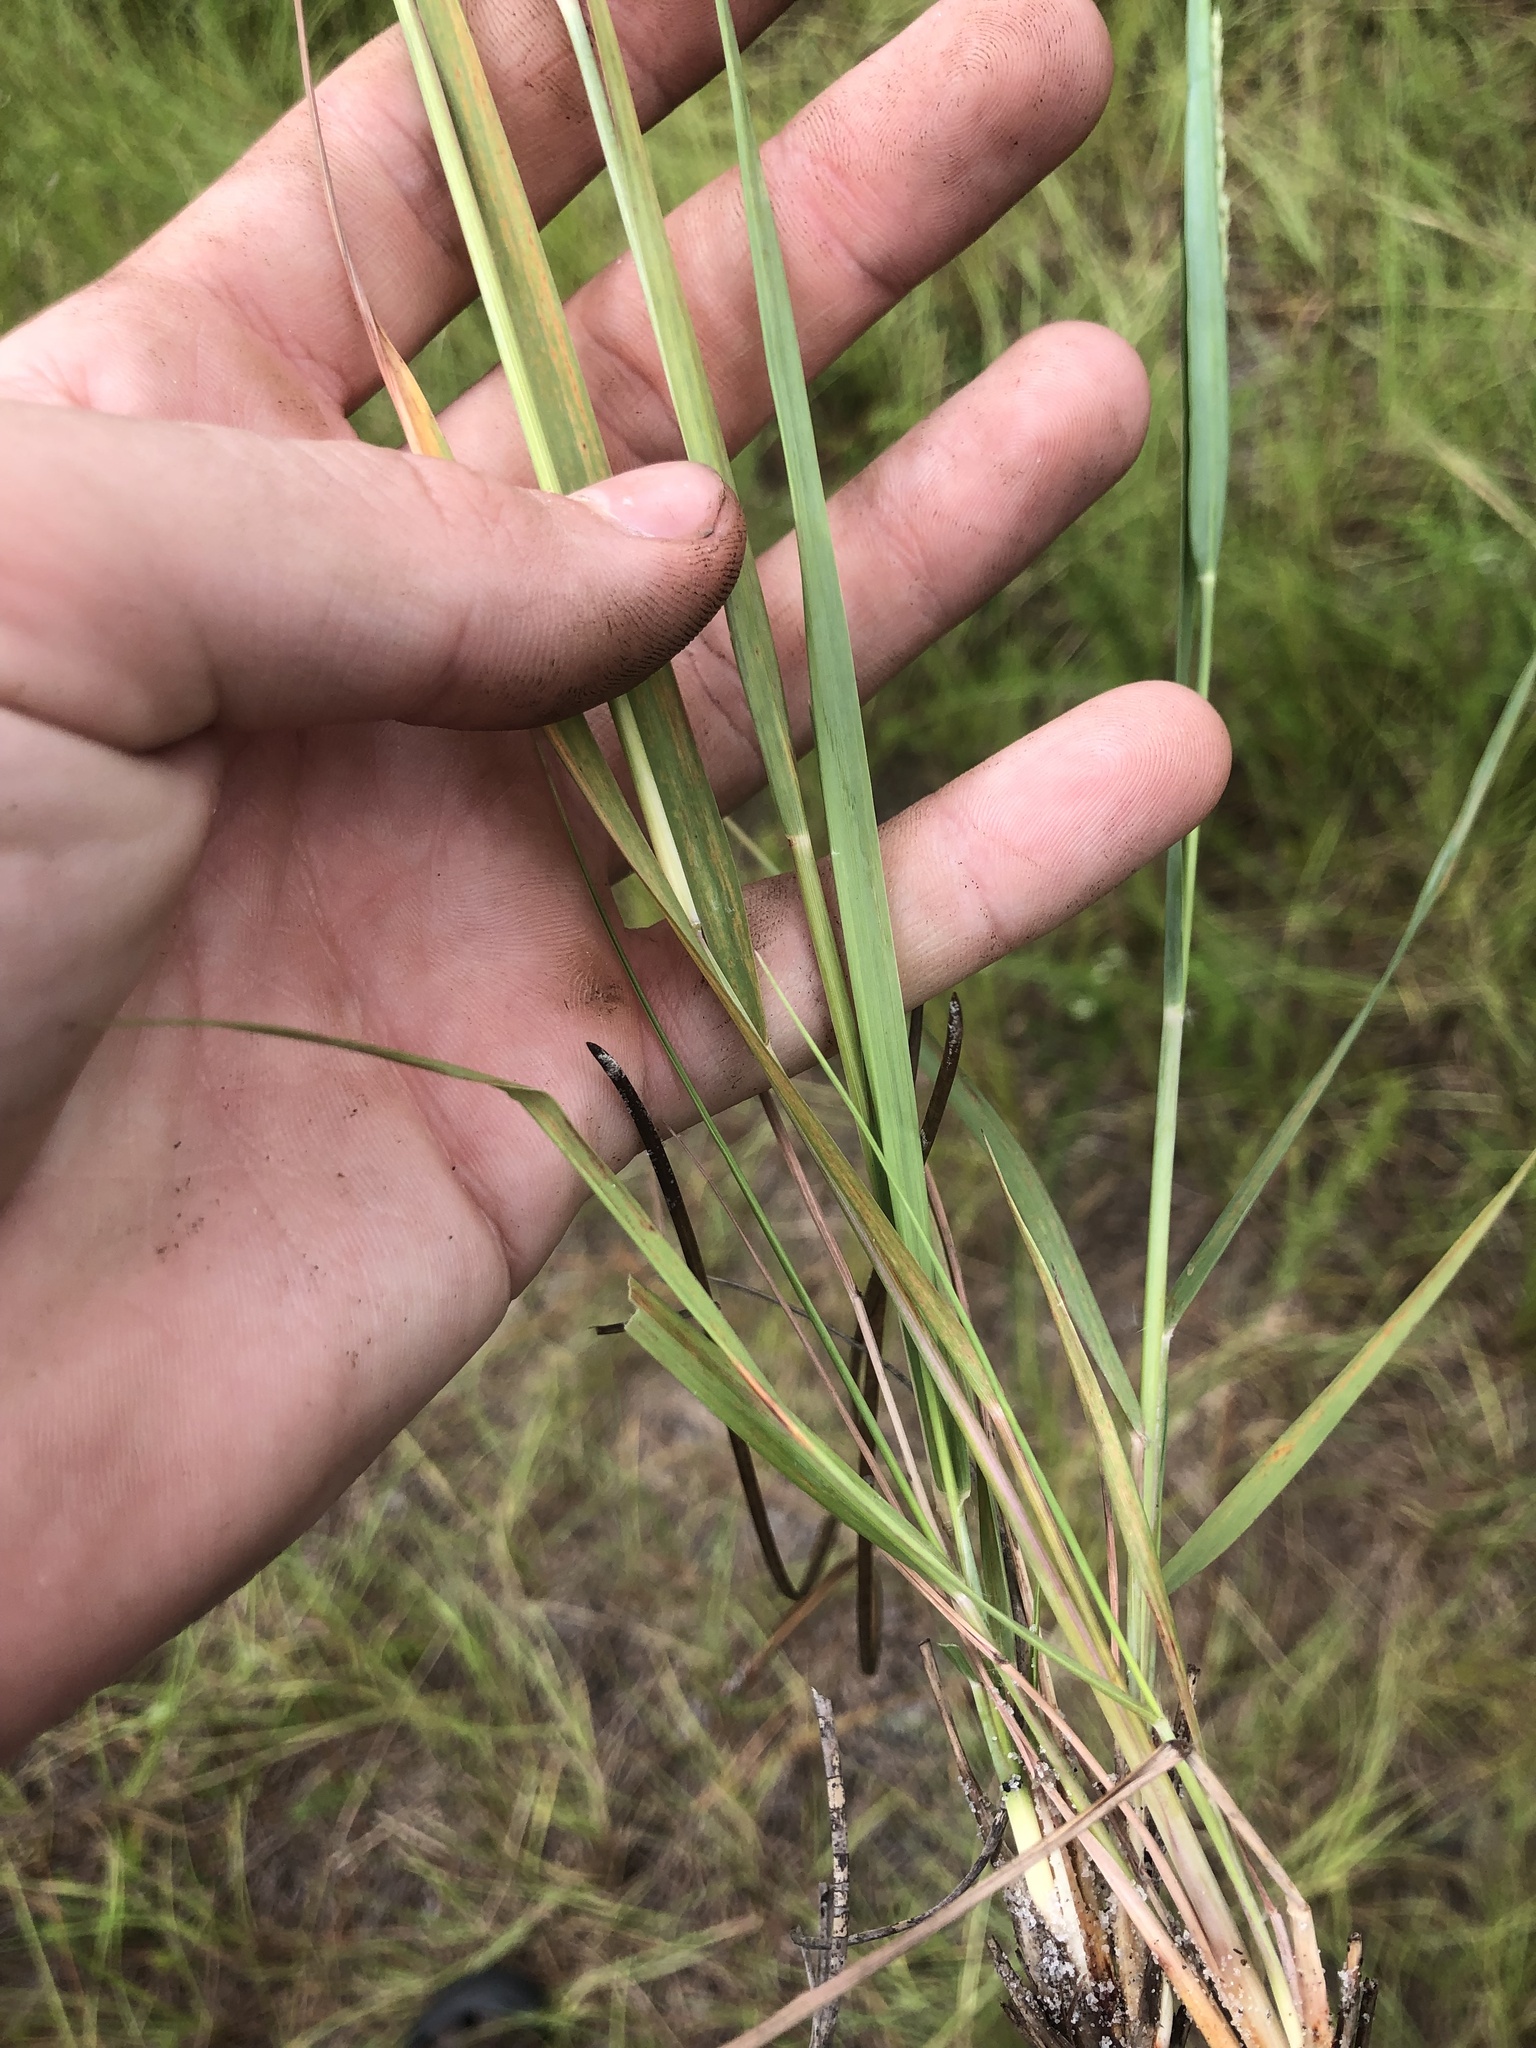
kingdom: Plantae
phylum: Tracheophyta
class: Liliopsida
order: Poales
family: Poaceae
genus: Eragrostis
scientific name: Eragrostis secundiflora
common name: Red love grass
